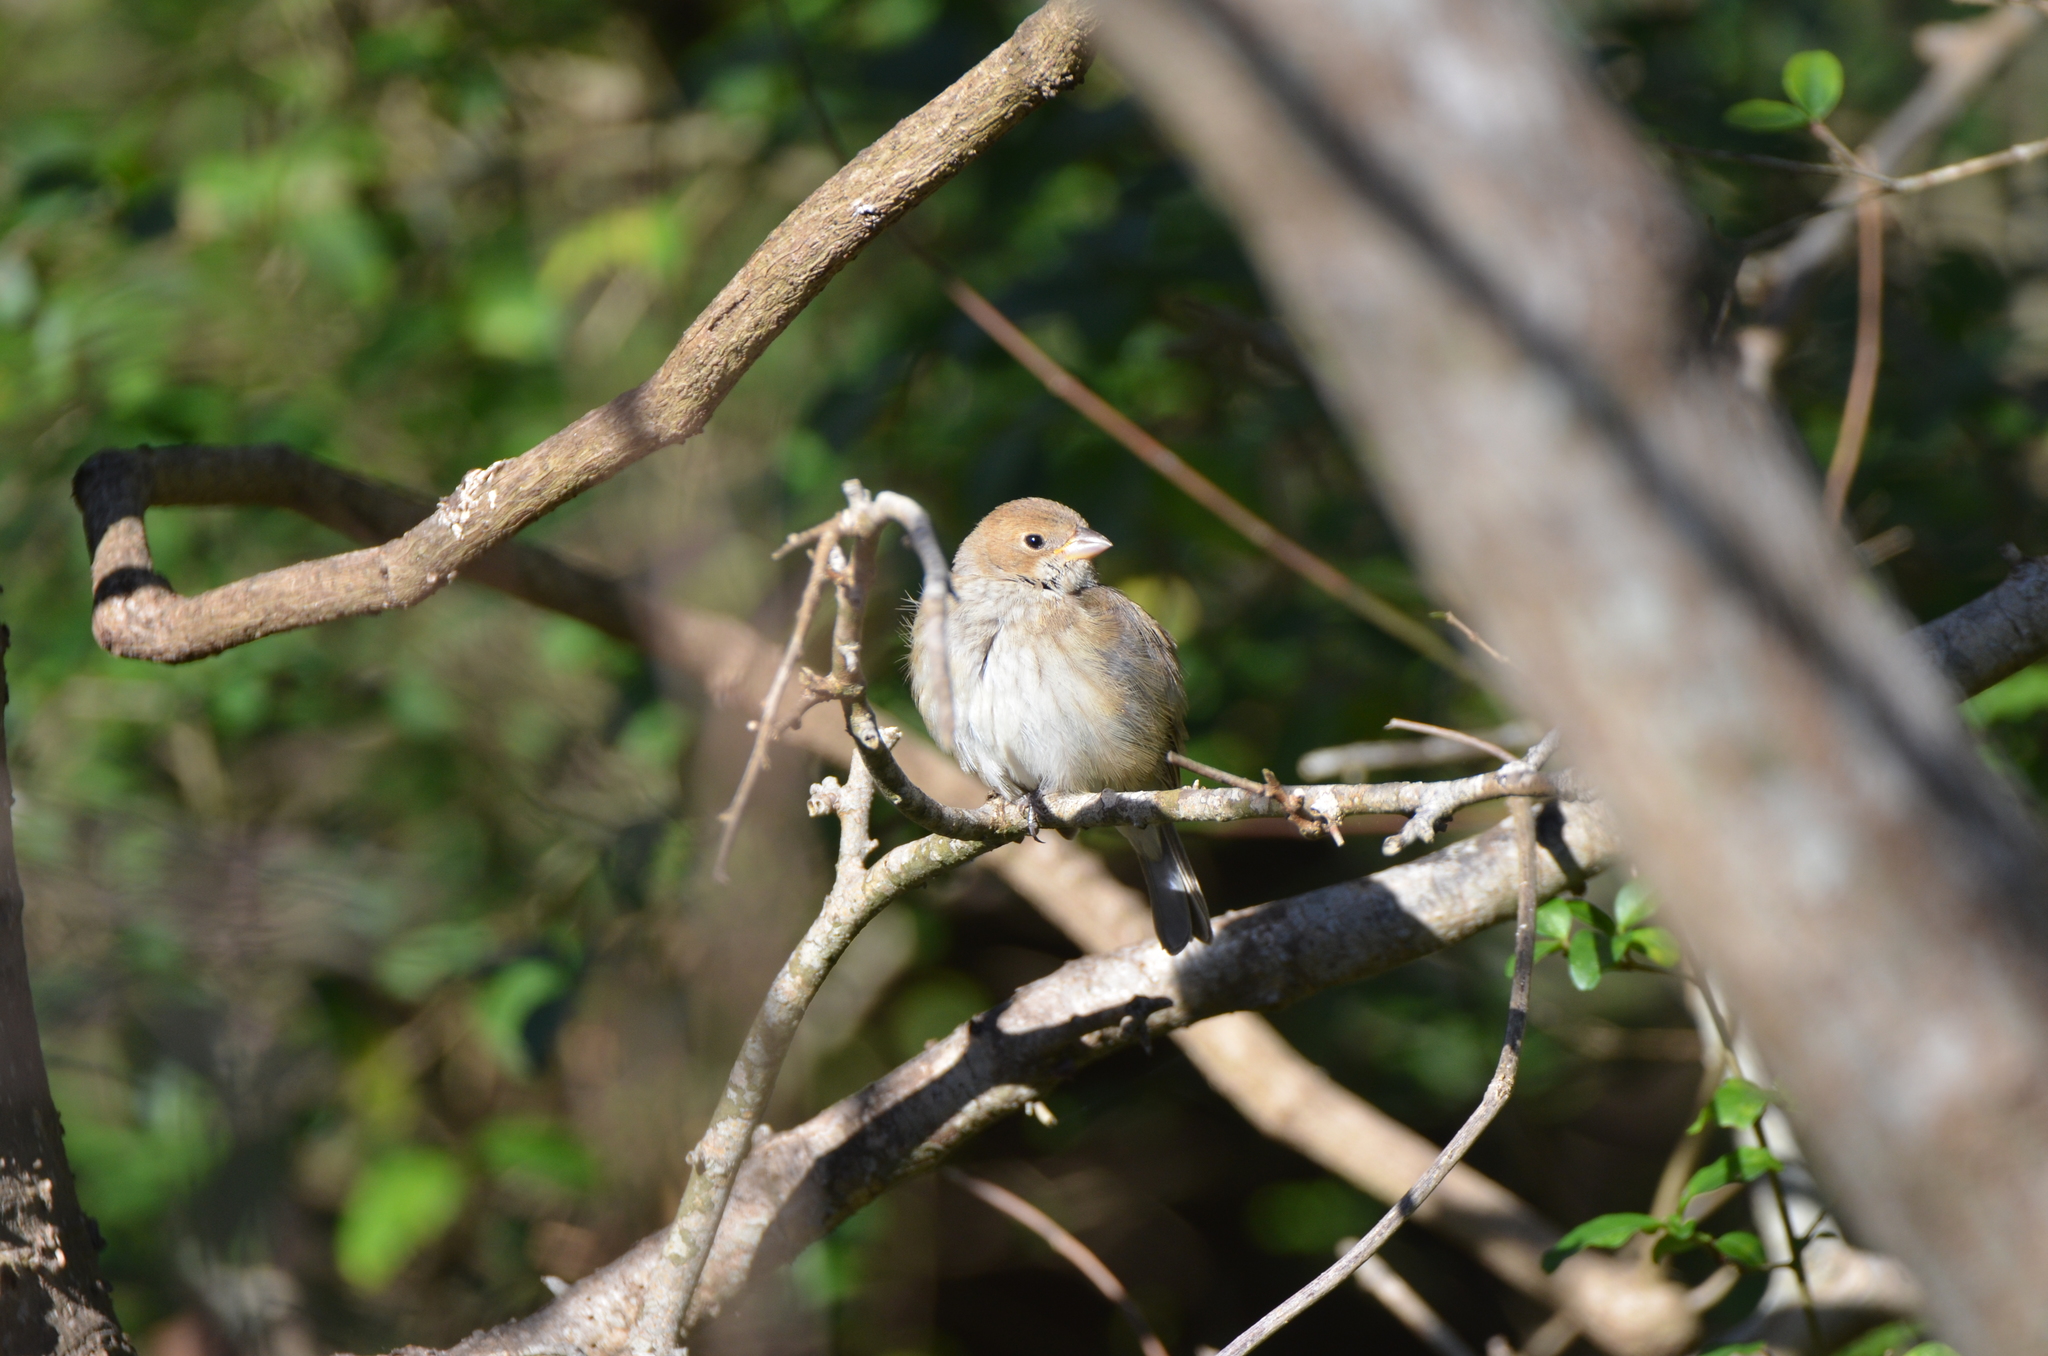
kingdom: Animalia
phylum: Chordata
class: Aves
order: Passeriformes
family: Cardinalidae
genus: Passerina
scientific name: Passerina cyanea
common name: Indigo bunting
